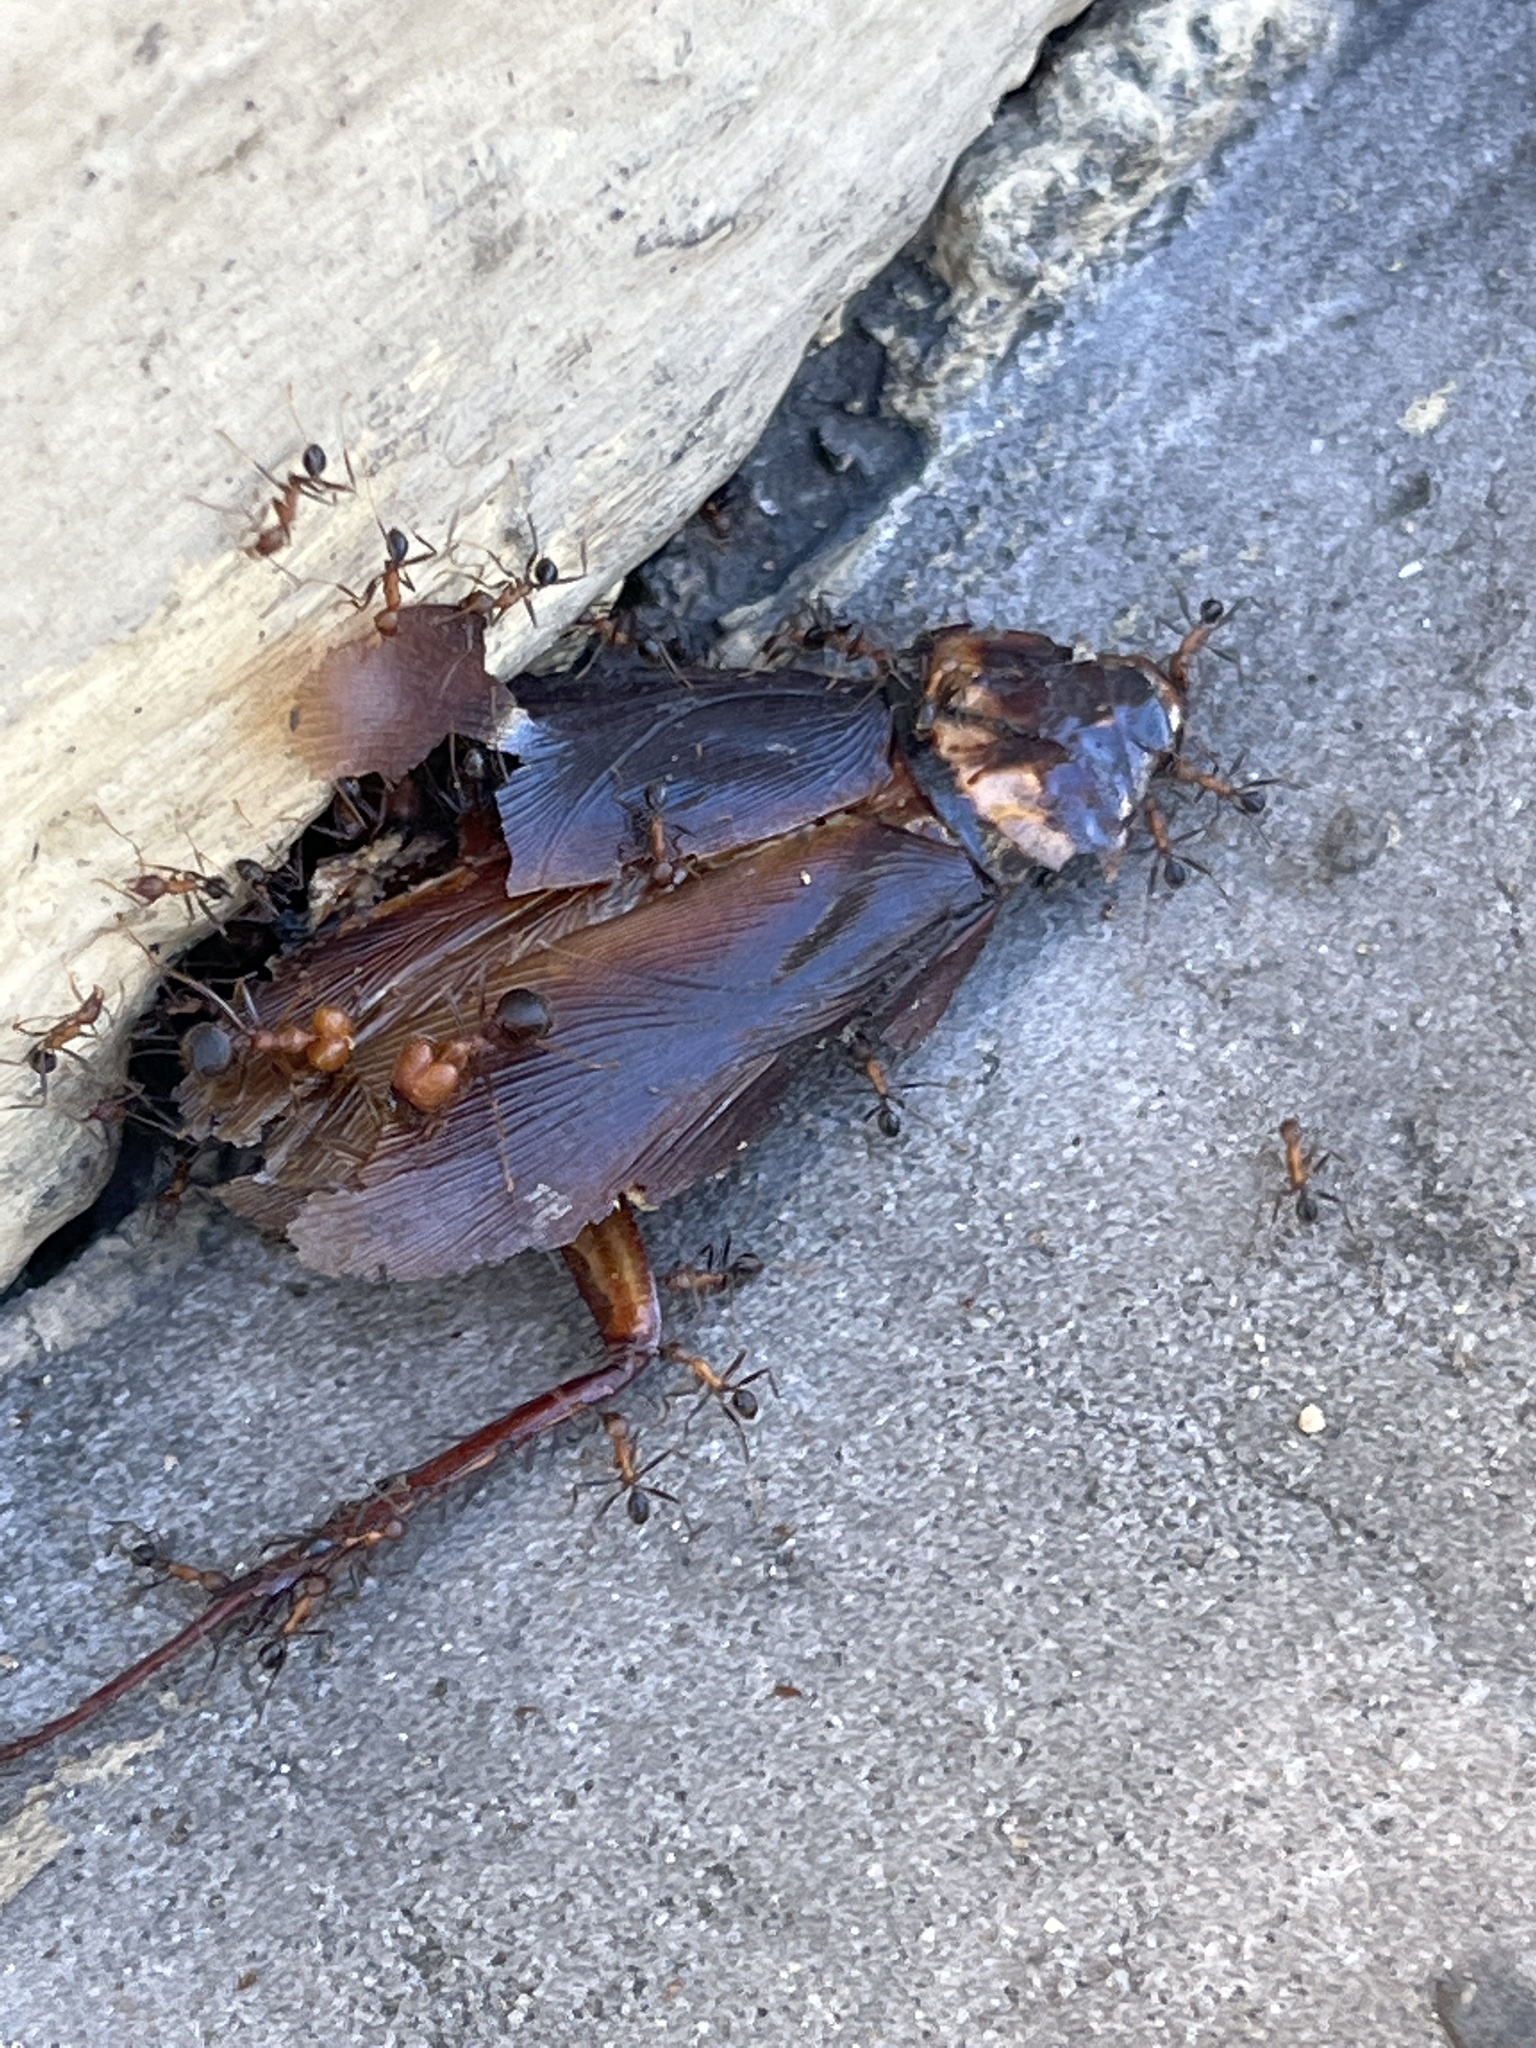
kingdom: Animalia
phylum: Arthropoda
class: Insecta
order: Blattodea
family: Blattidae
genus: Periplaneta
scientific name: Periplaneta americana
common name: American cockroach
